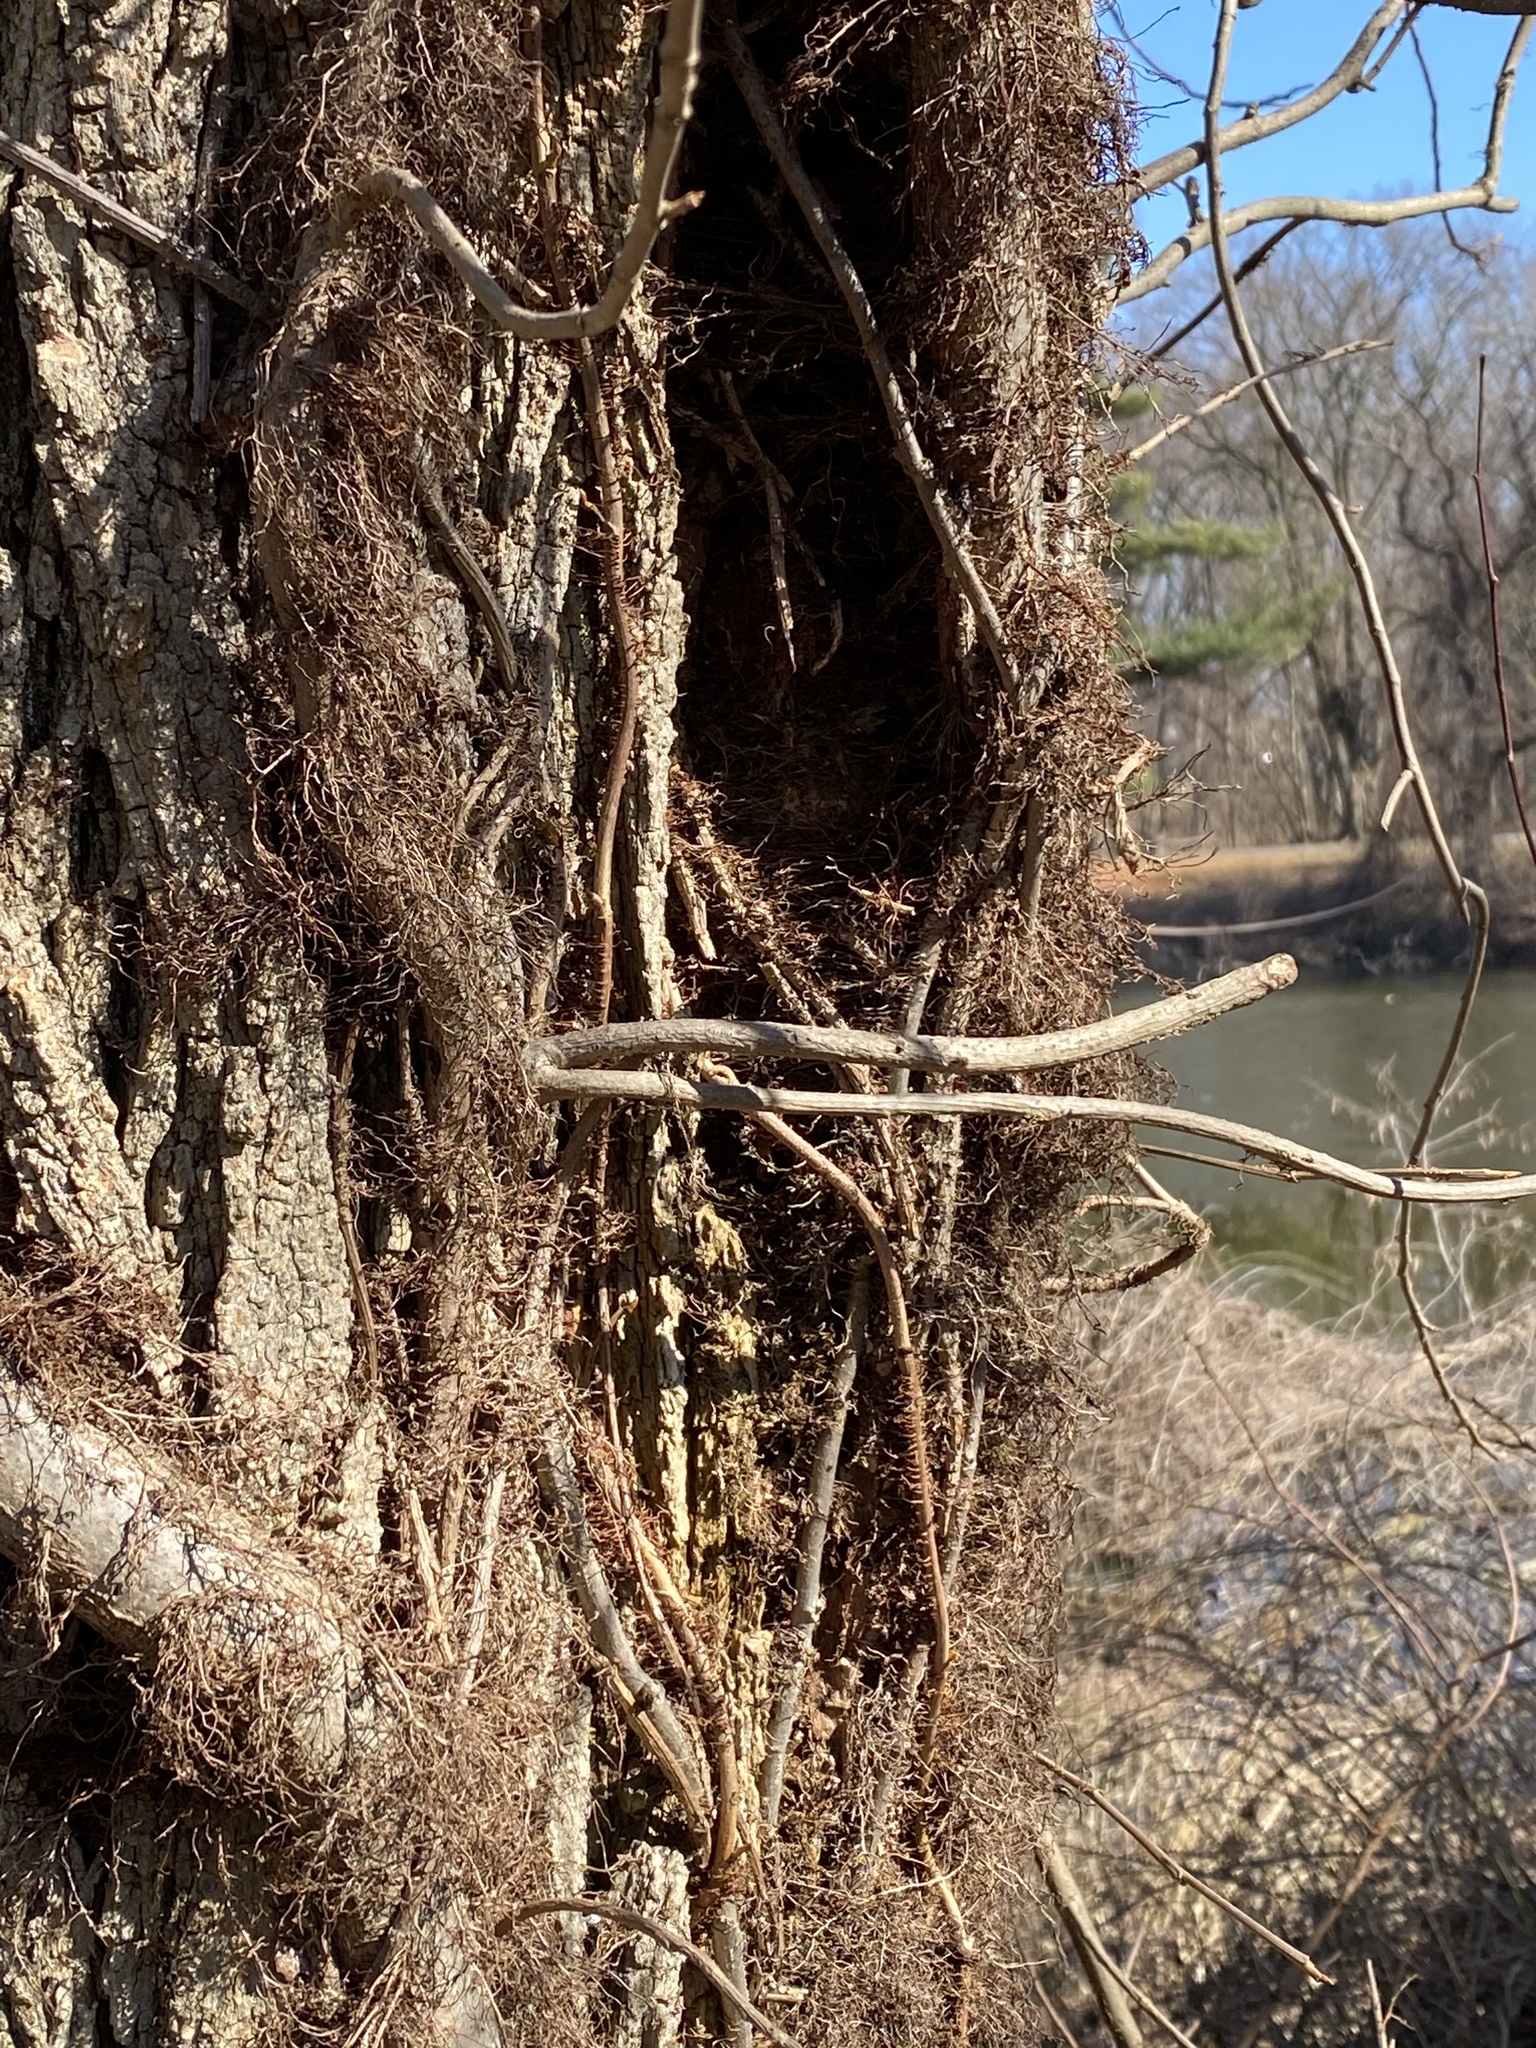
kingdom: Plantae
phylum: Tracheophyta
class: Magnoliopsida
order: Sapindales
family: Anacardiaceae
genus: Toxicodendron
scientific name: Toxicodendron radicans
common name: Poison ivy
